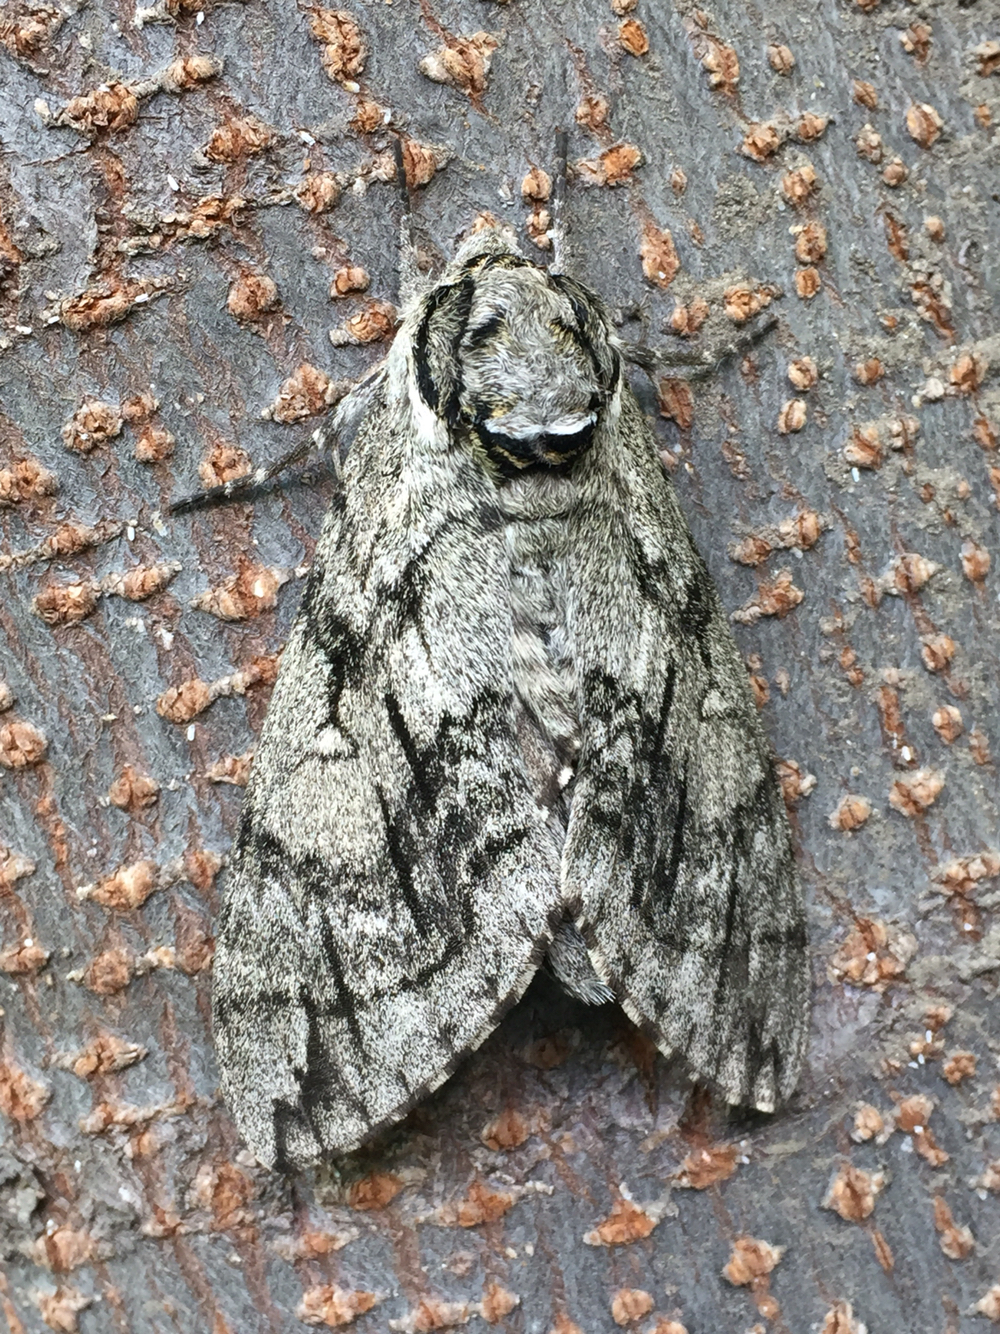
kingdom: Animalia
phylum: Arthropoda
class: Insecta
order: Lepidoptera
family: Sphingidae
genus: Ceratomia
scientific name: Ceratomia undulosa
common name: Waved sphinx
